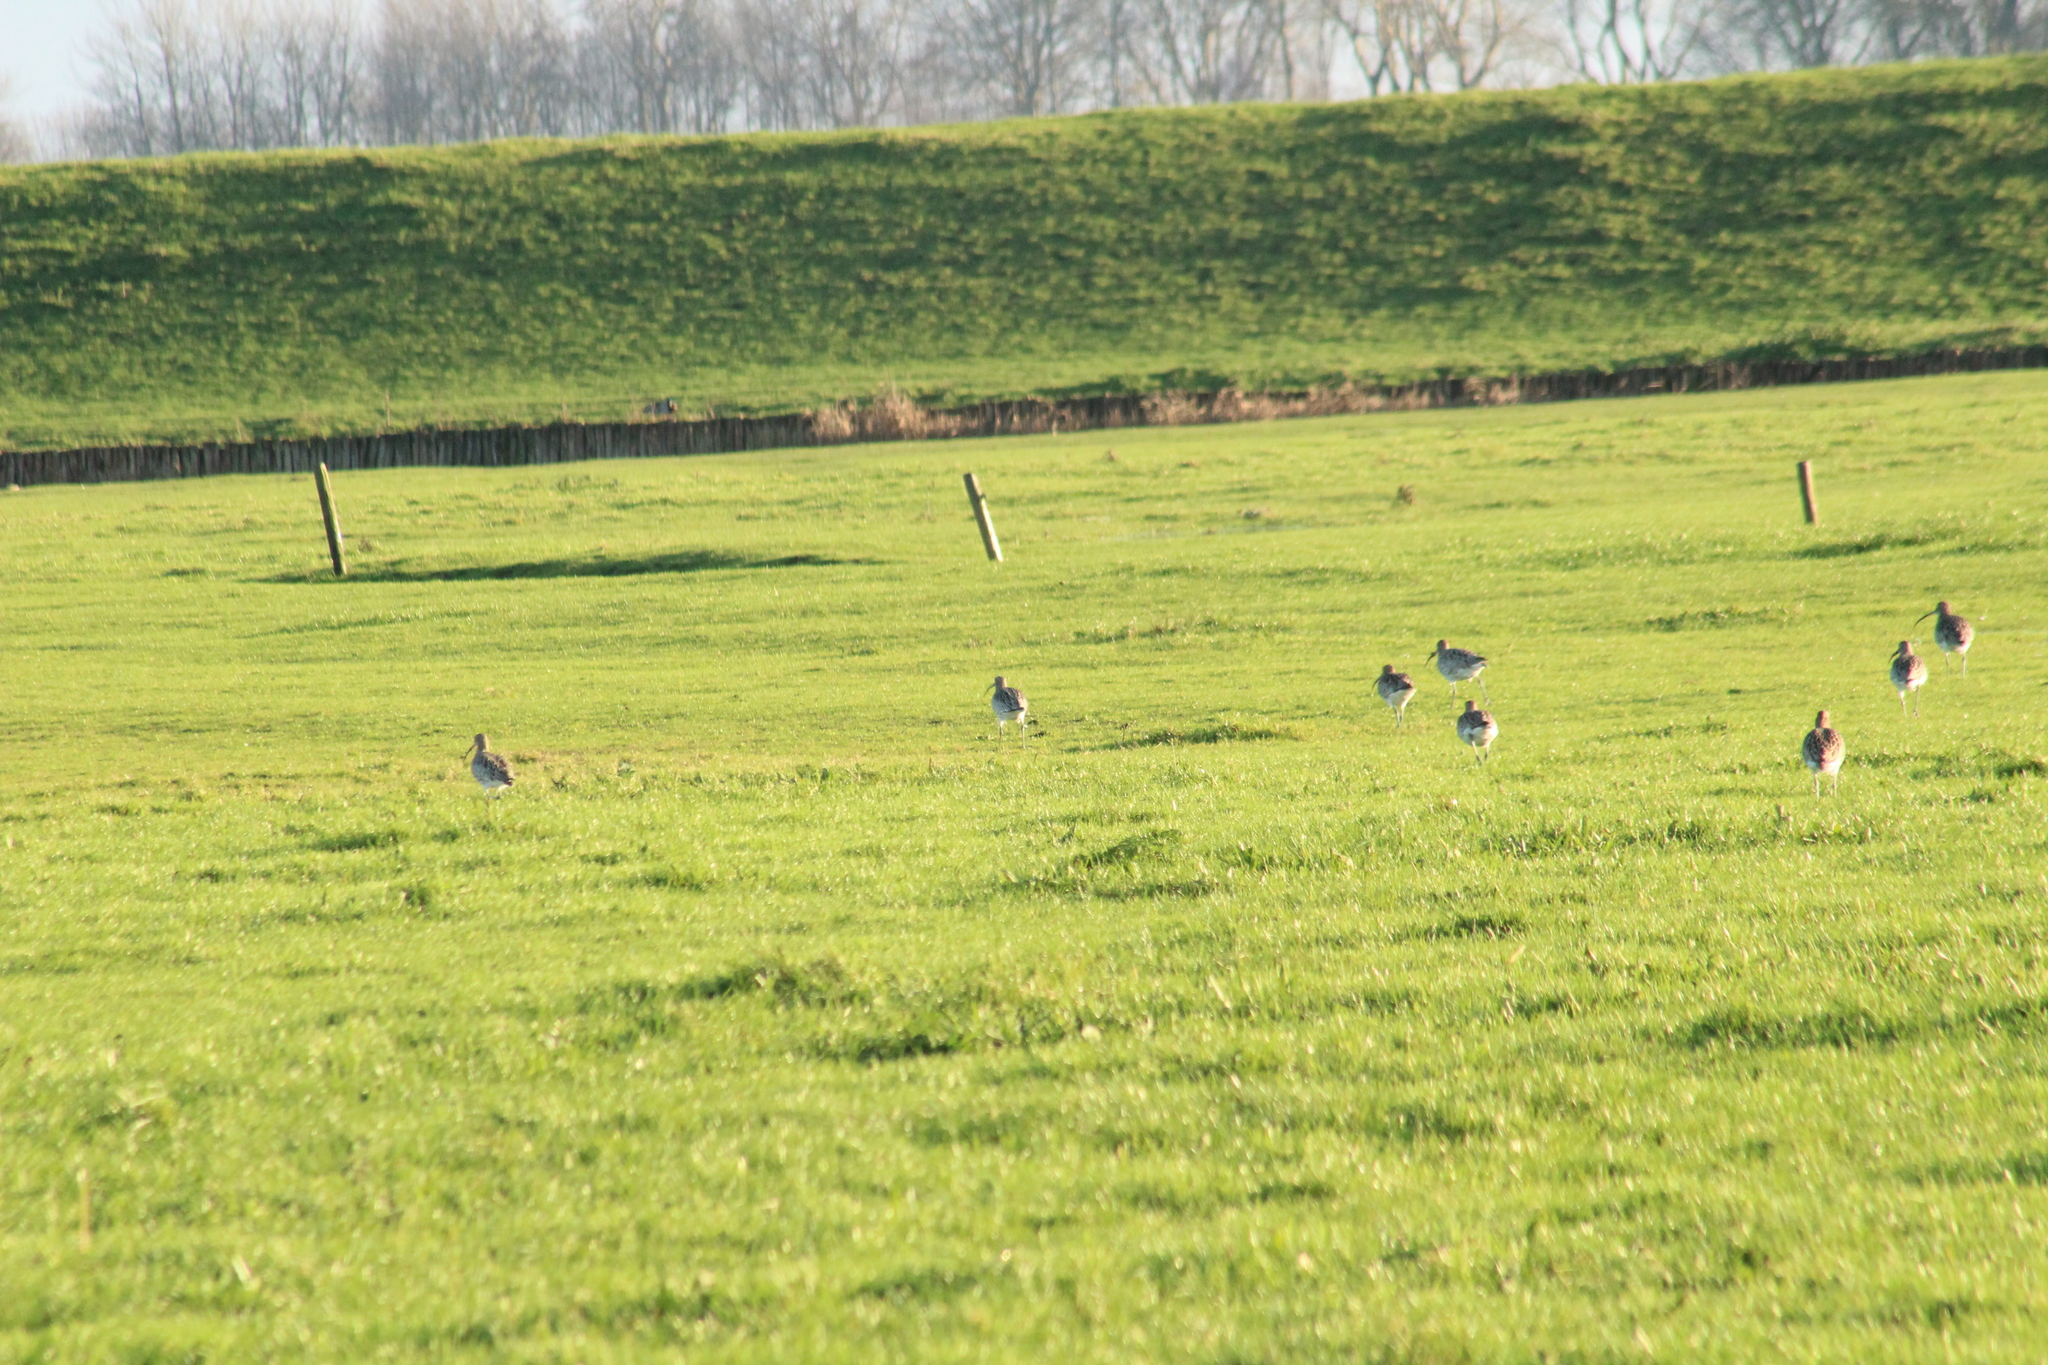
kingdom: Animalia
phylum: Chordata
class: Aves
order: Charadriiformes
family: Scolopacidae
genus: Numenius
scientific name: Numenius arquata
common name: Eurasian curlew
